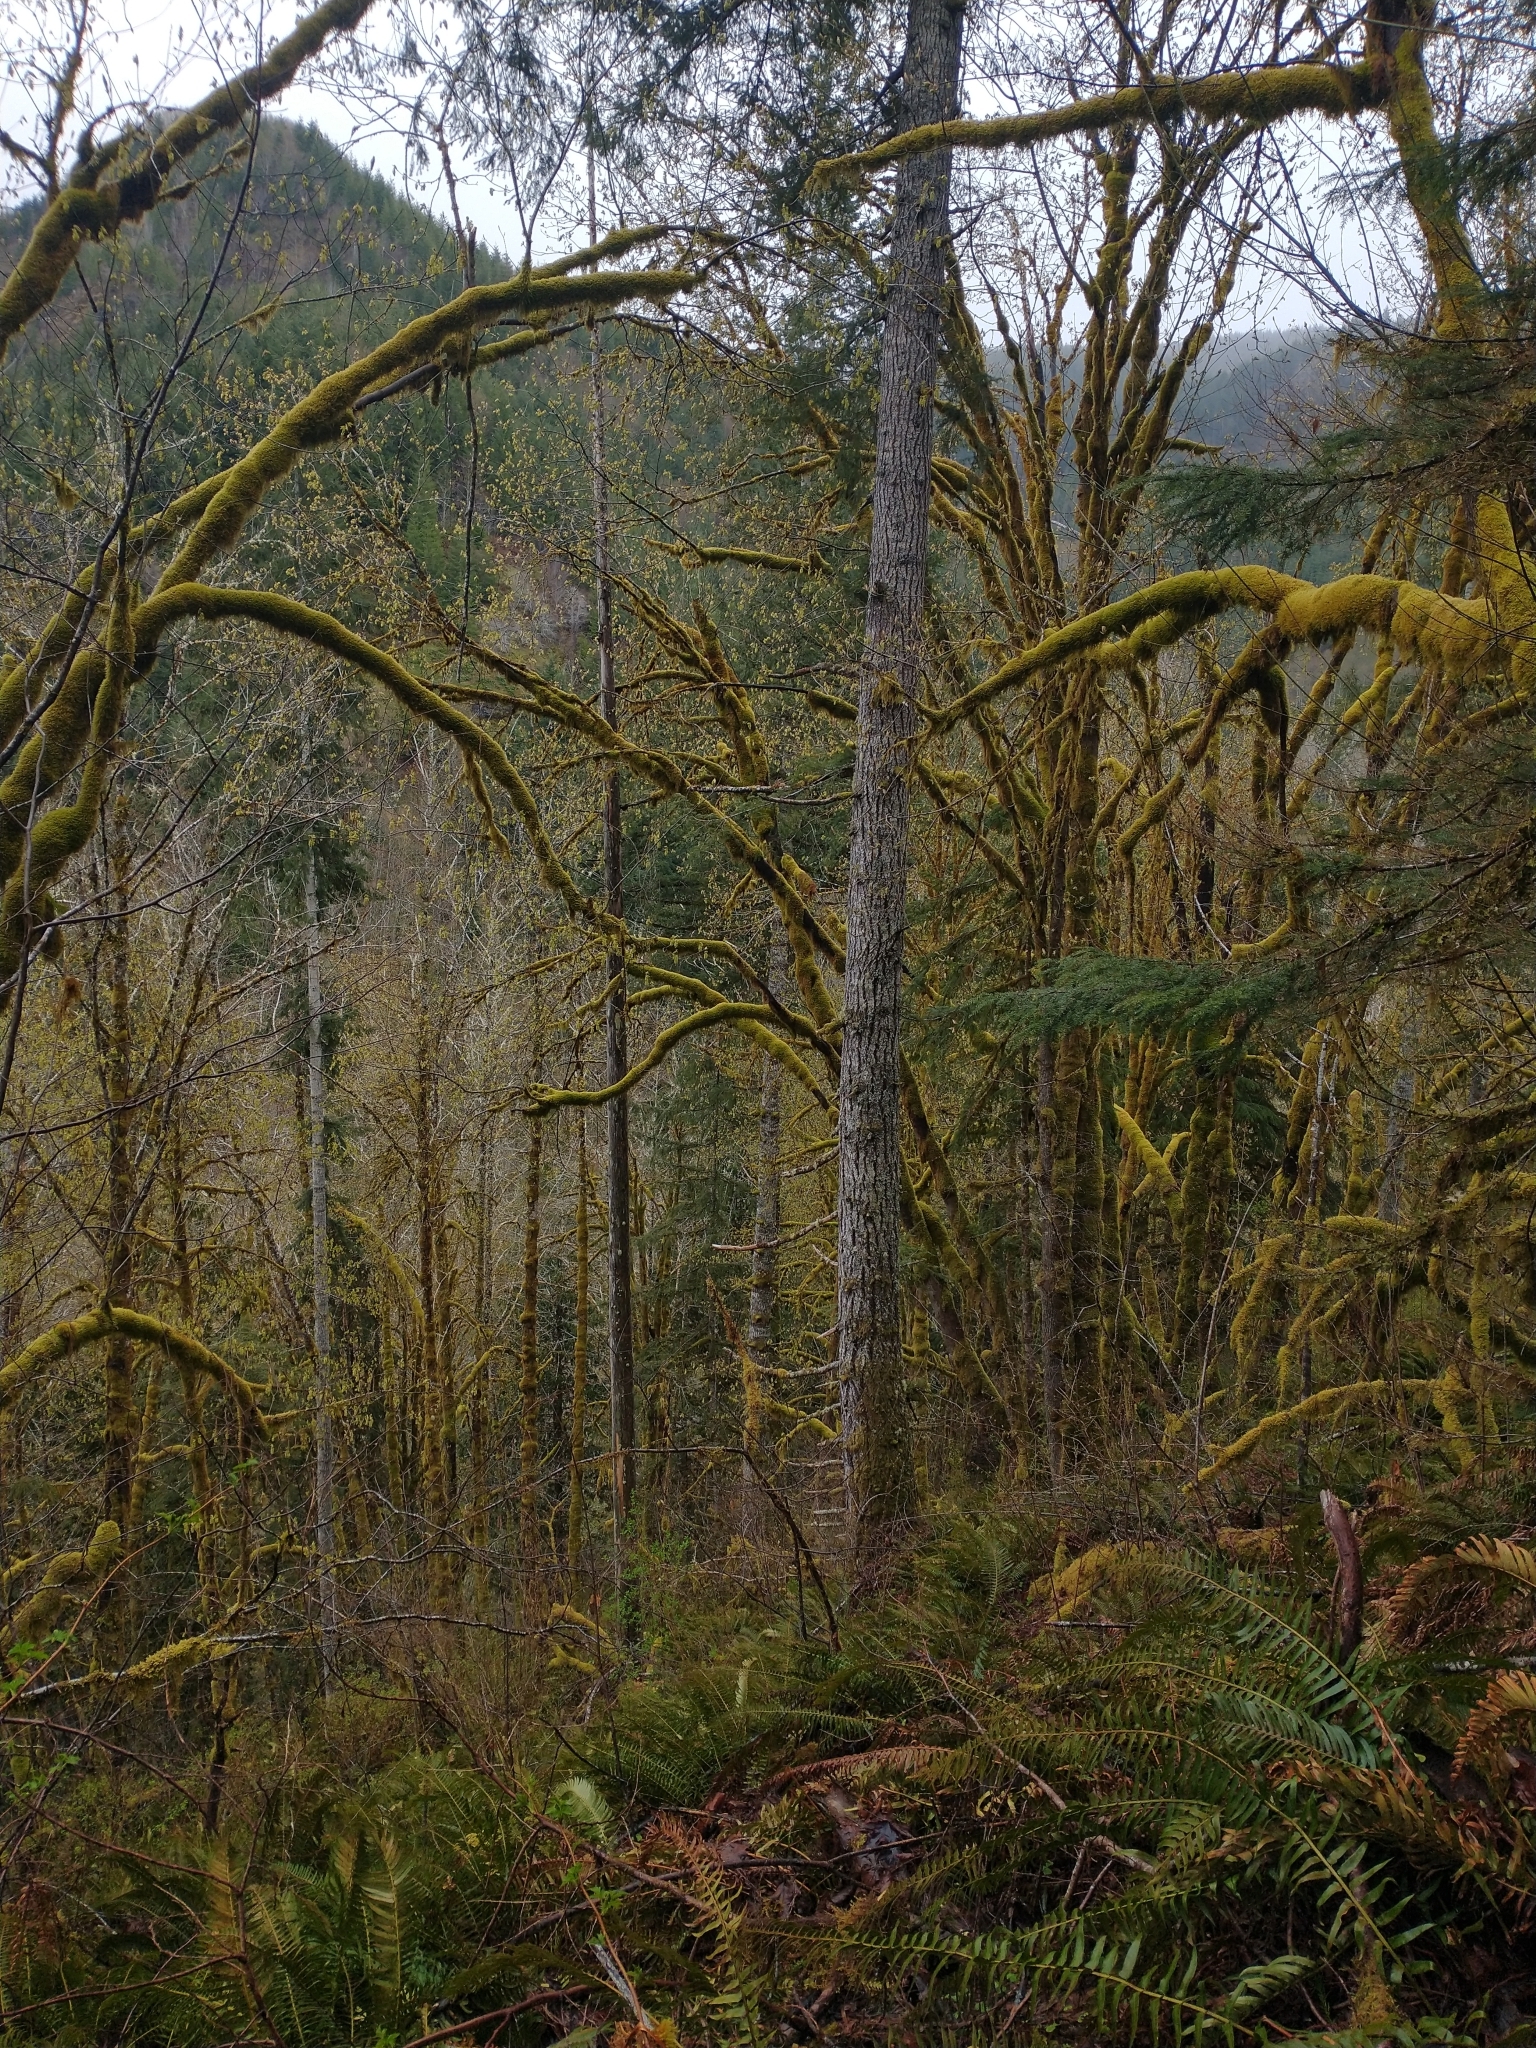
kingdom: Plantae
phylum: Tracheophyta
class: Polypodiopsida
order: Polypodiales
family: Dryopteridaceae
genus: Polystichum
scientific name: Polystichum munitum
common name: Western sword-fern
